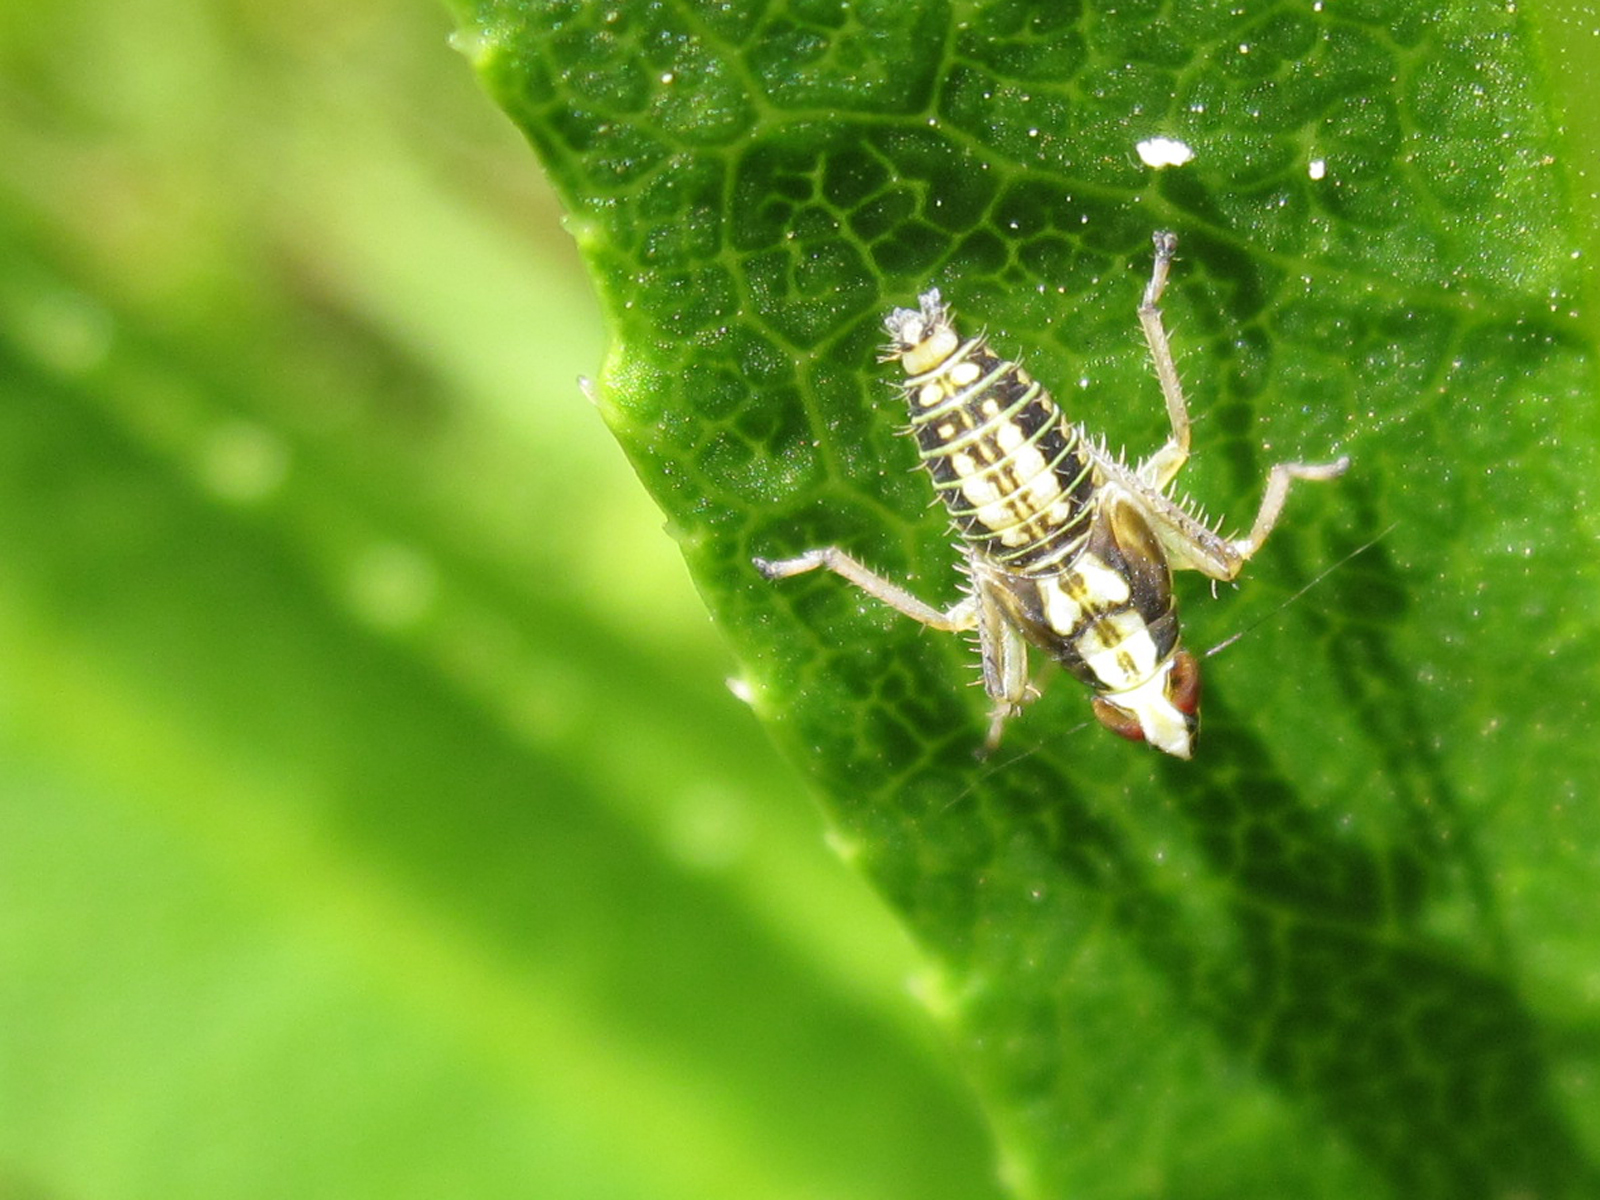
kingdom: Animalia
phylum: Arthropoda
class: Insecta
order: Hemiptera
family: Cicadellidae
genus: Chilelana
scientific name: Chilelana artigasi
